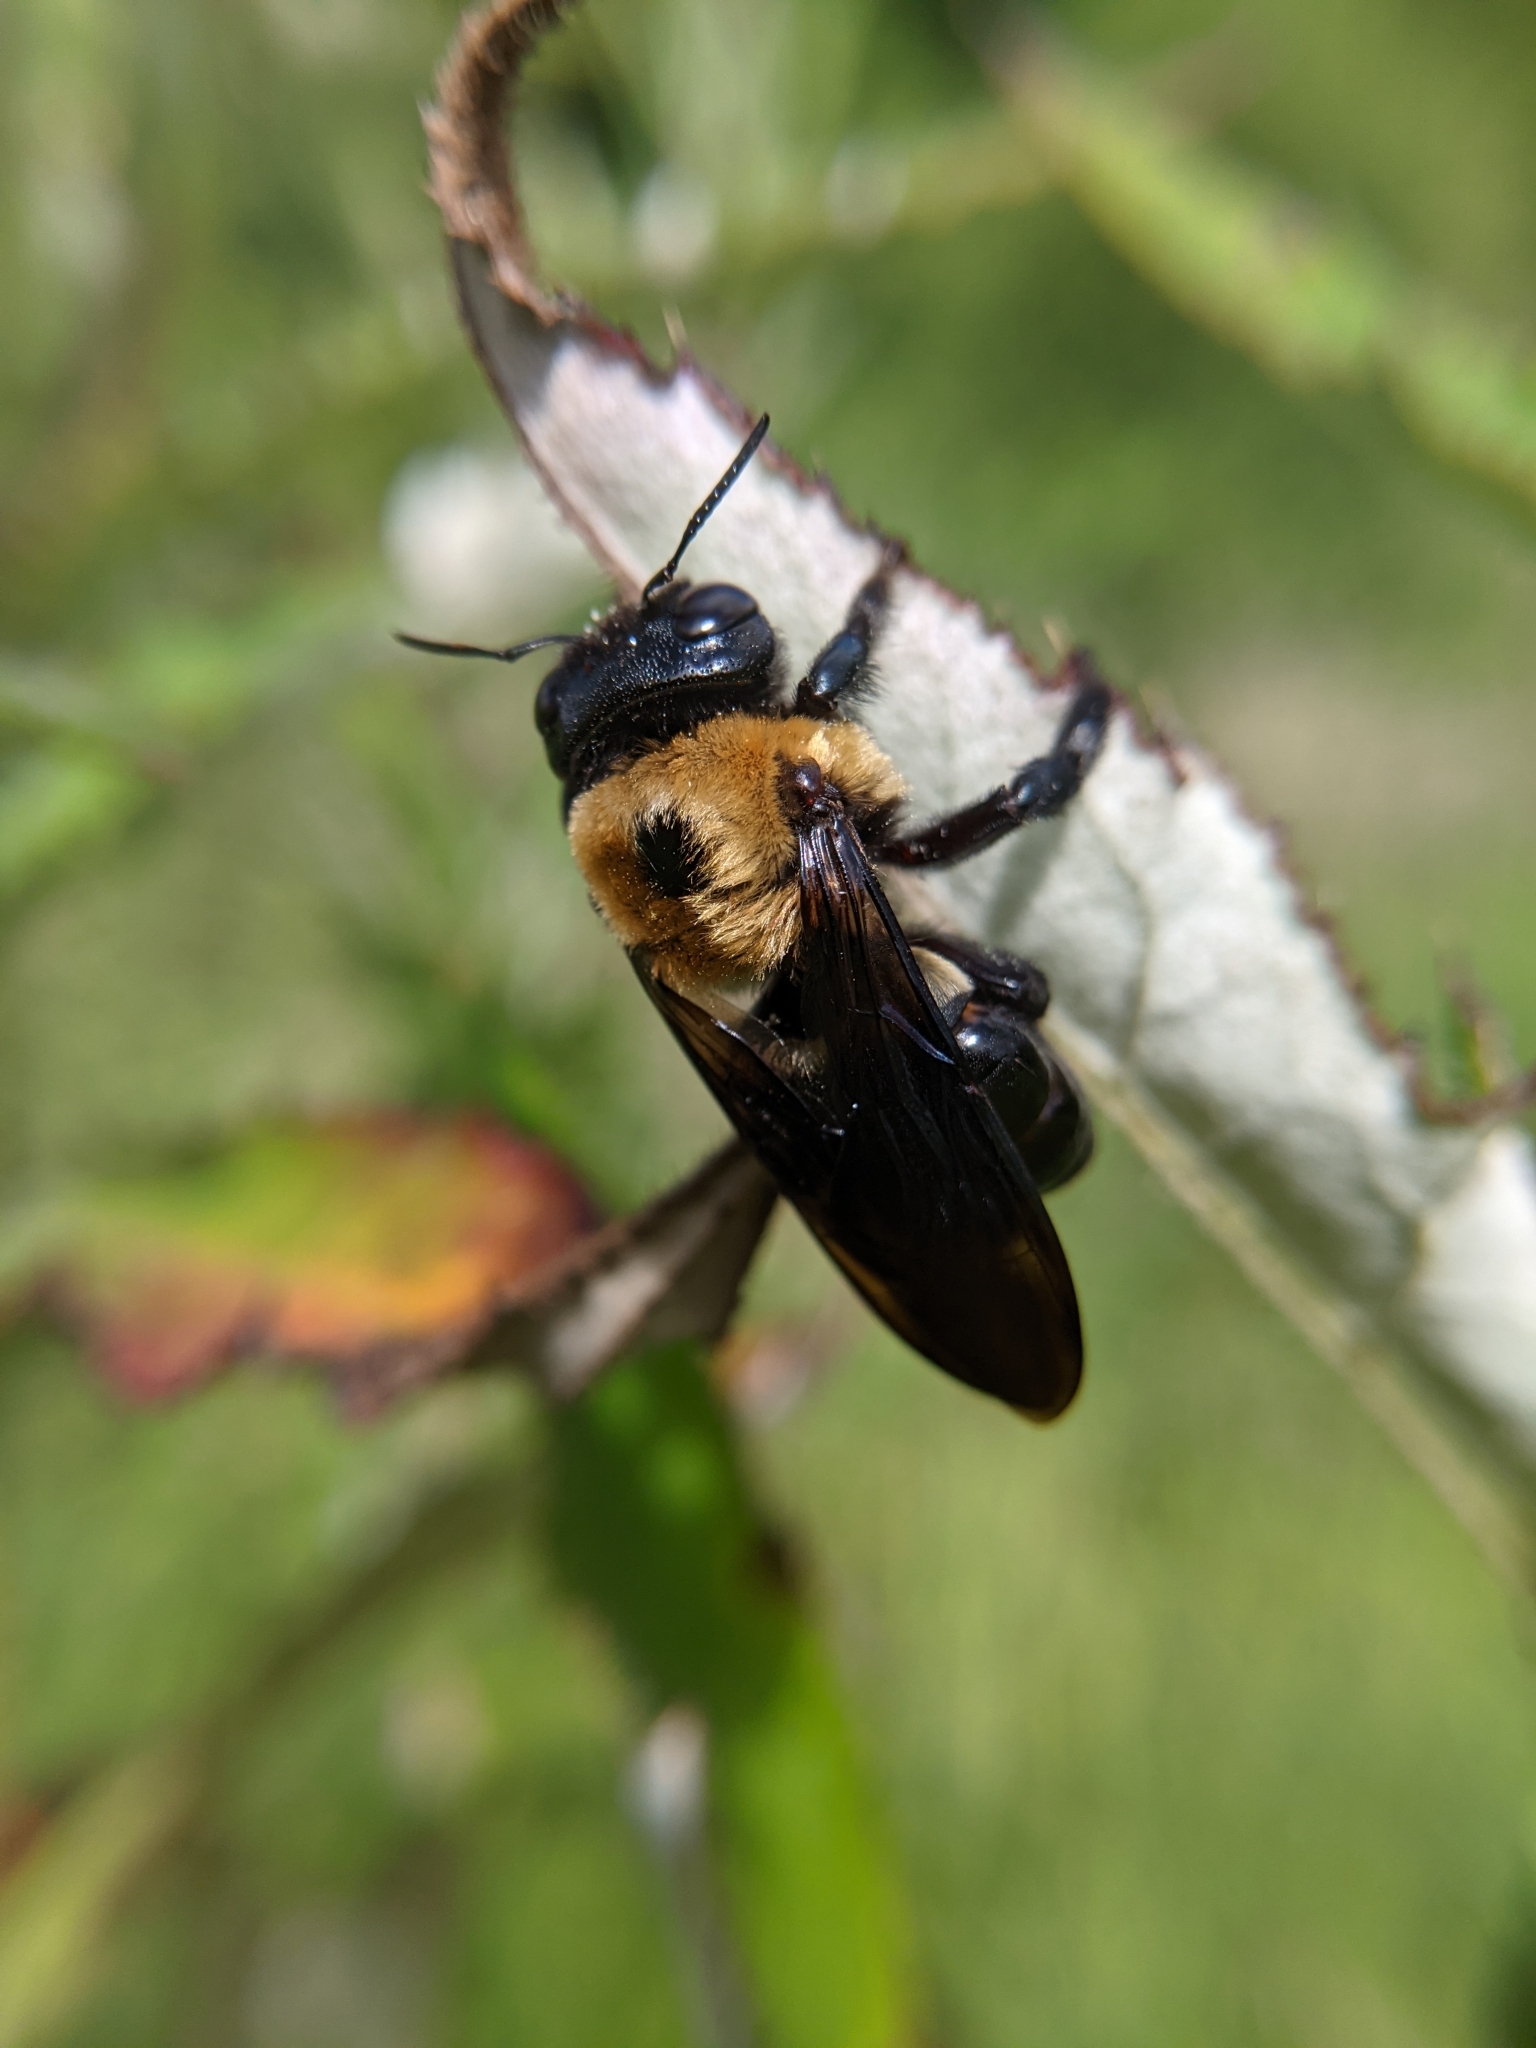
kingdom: Animalia
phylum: Arthropoda
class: Insecta
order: Hymenoptera
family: Apidae
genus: Xylocopa
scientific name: Xylocopa virginica
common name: Carpenter bee
